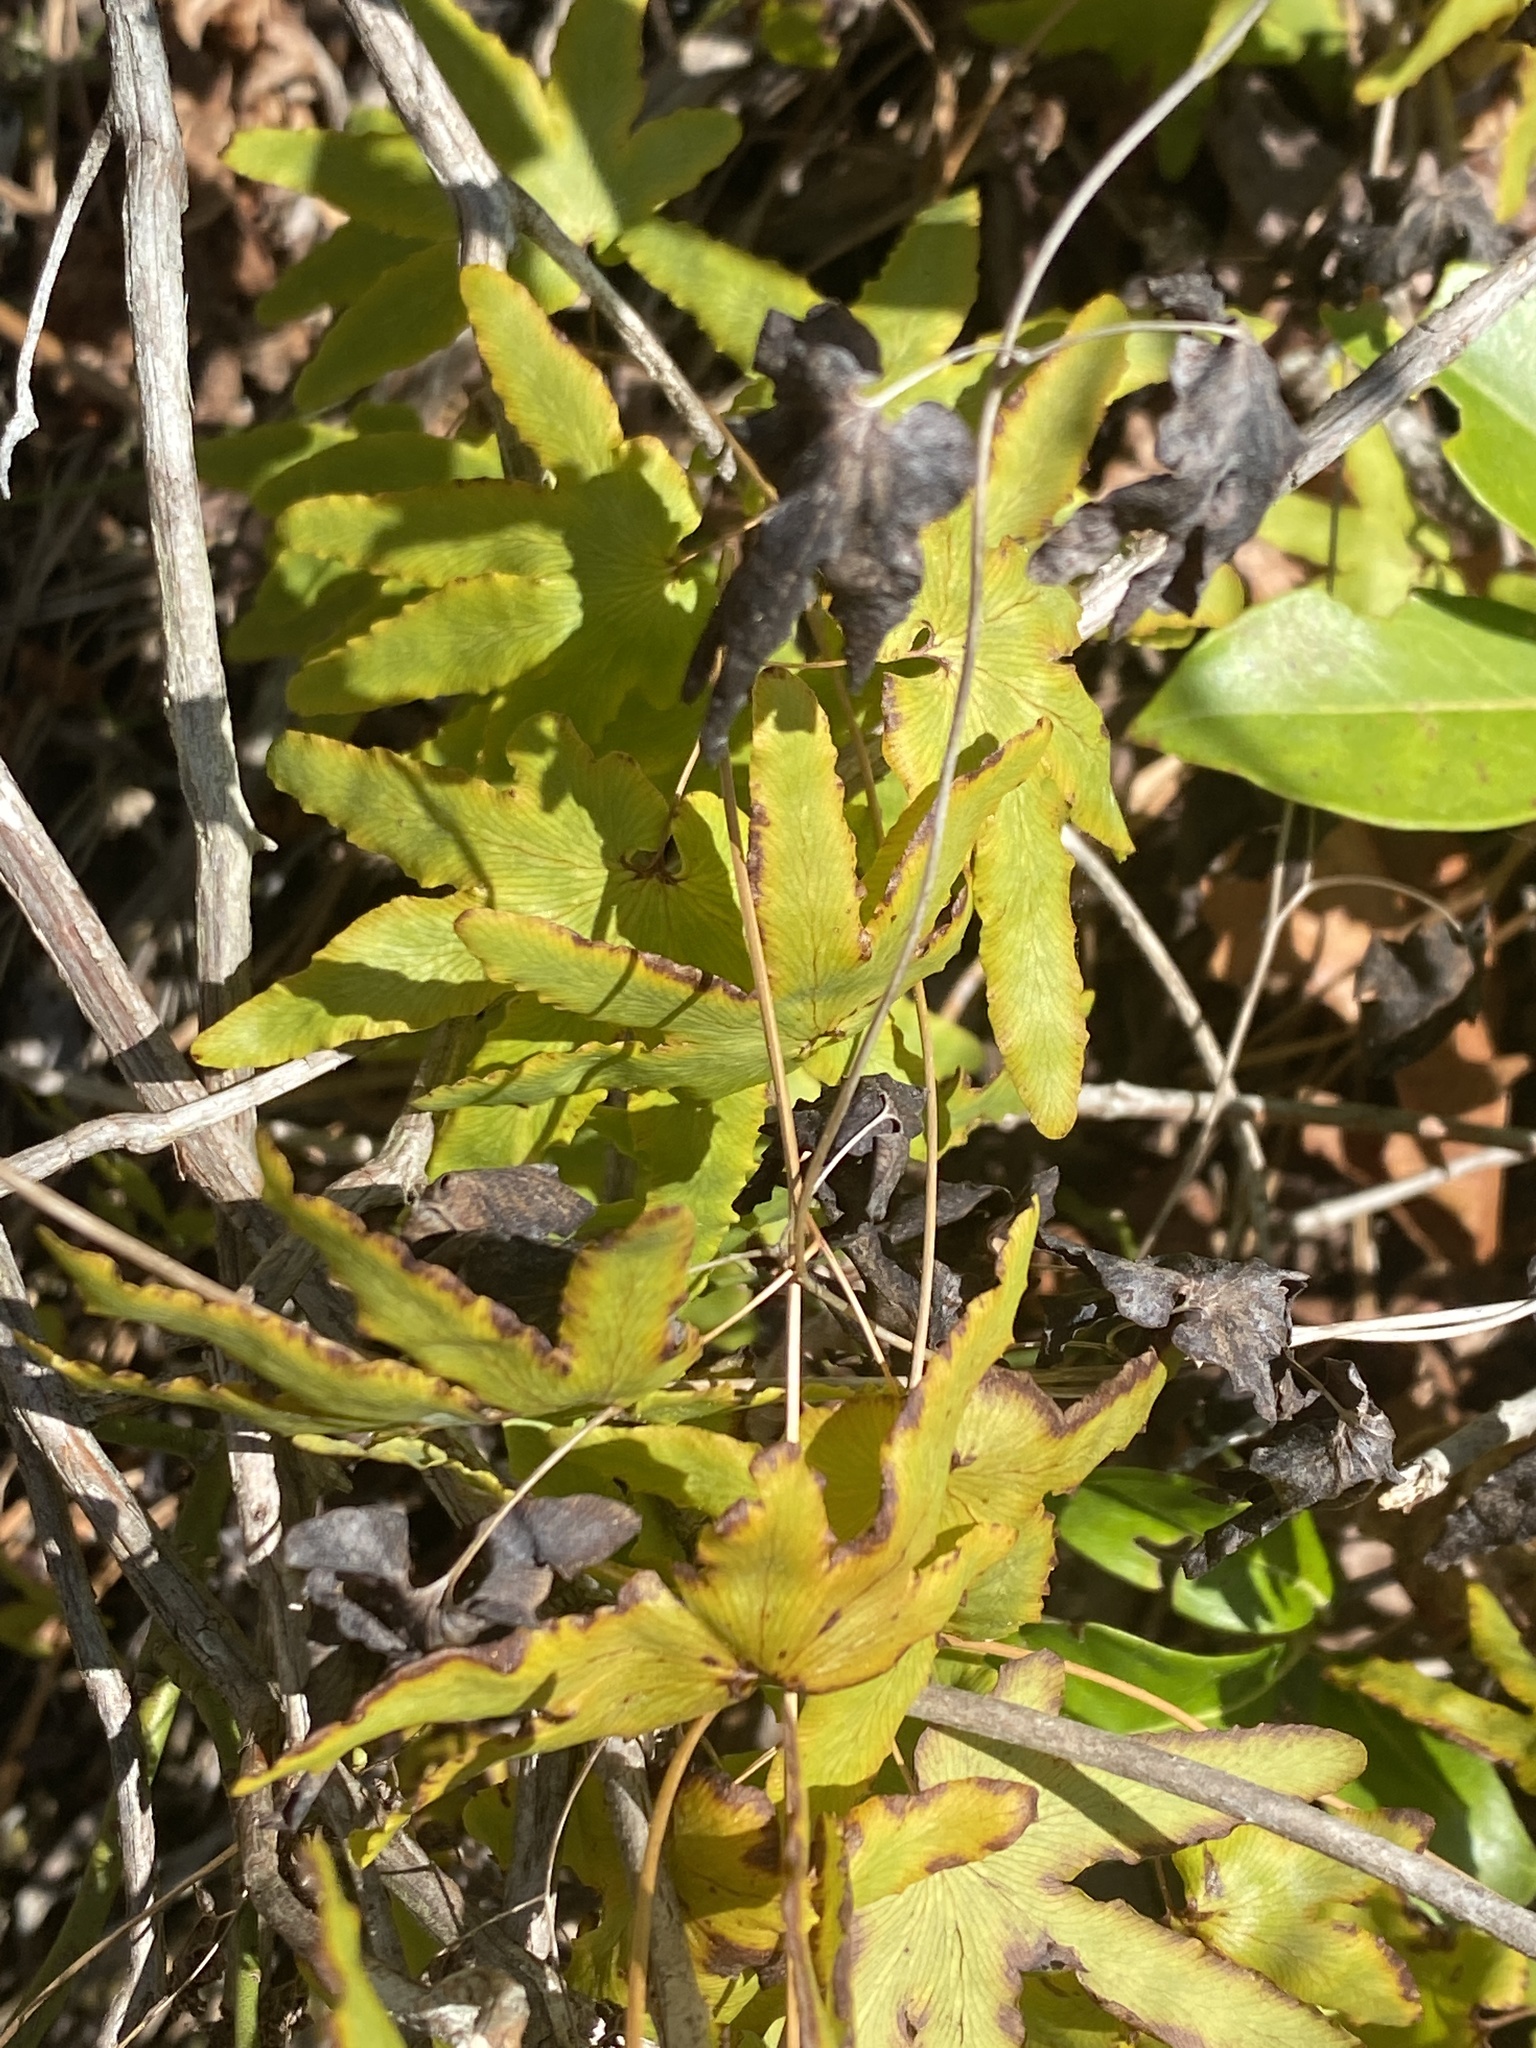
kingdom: Plantae
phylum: Tracheophyta
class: Polypodiopsida
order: Schizaeales
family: Lygodiaceae
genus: Lygodium
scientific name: Lygodium palmatum
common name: American climbing fern
